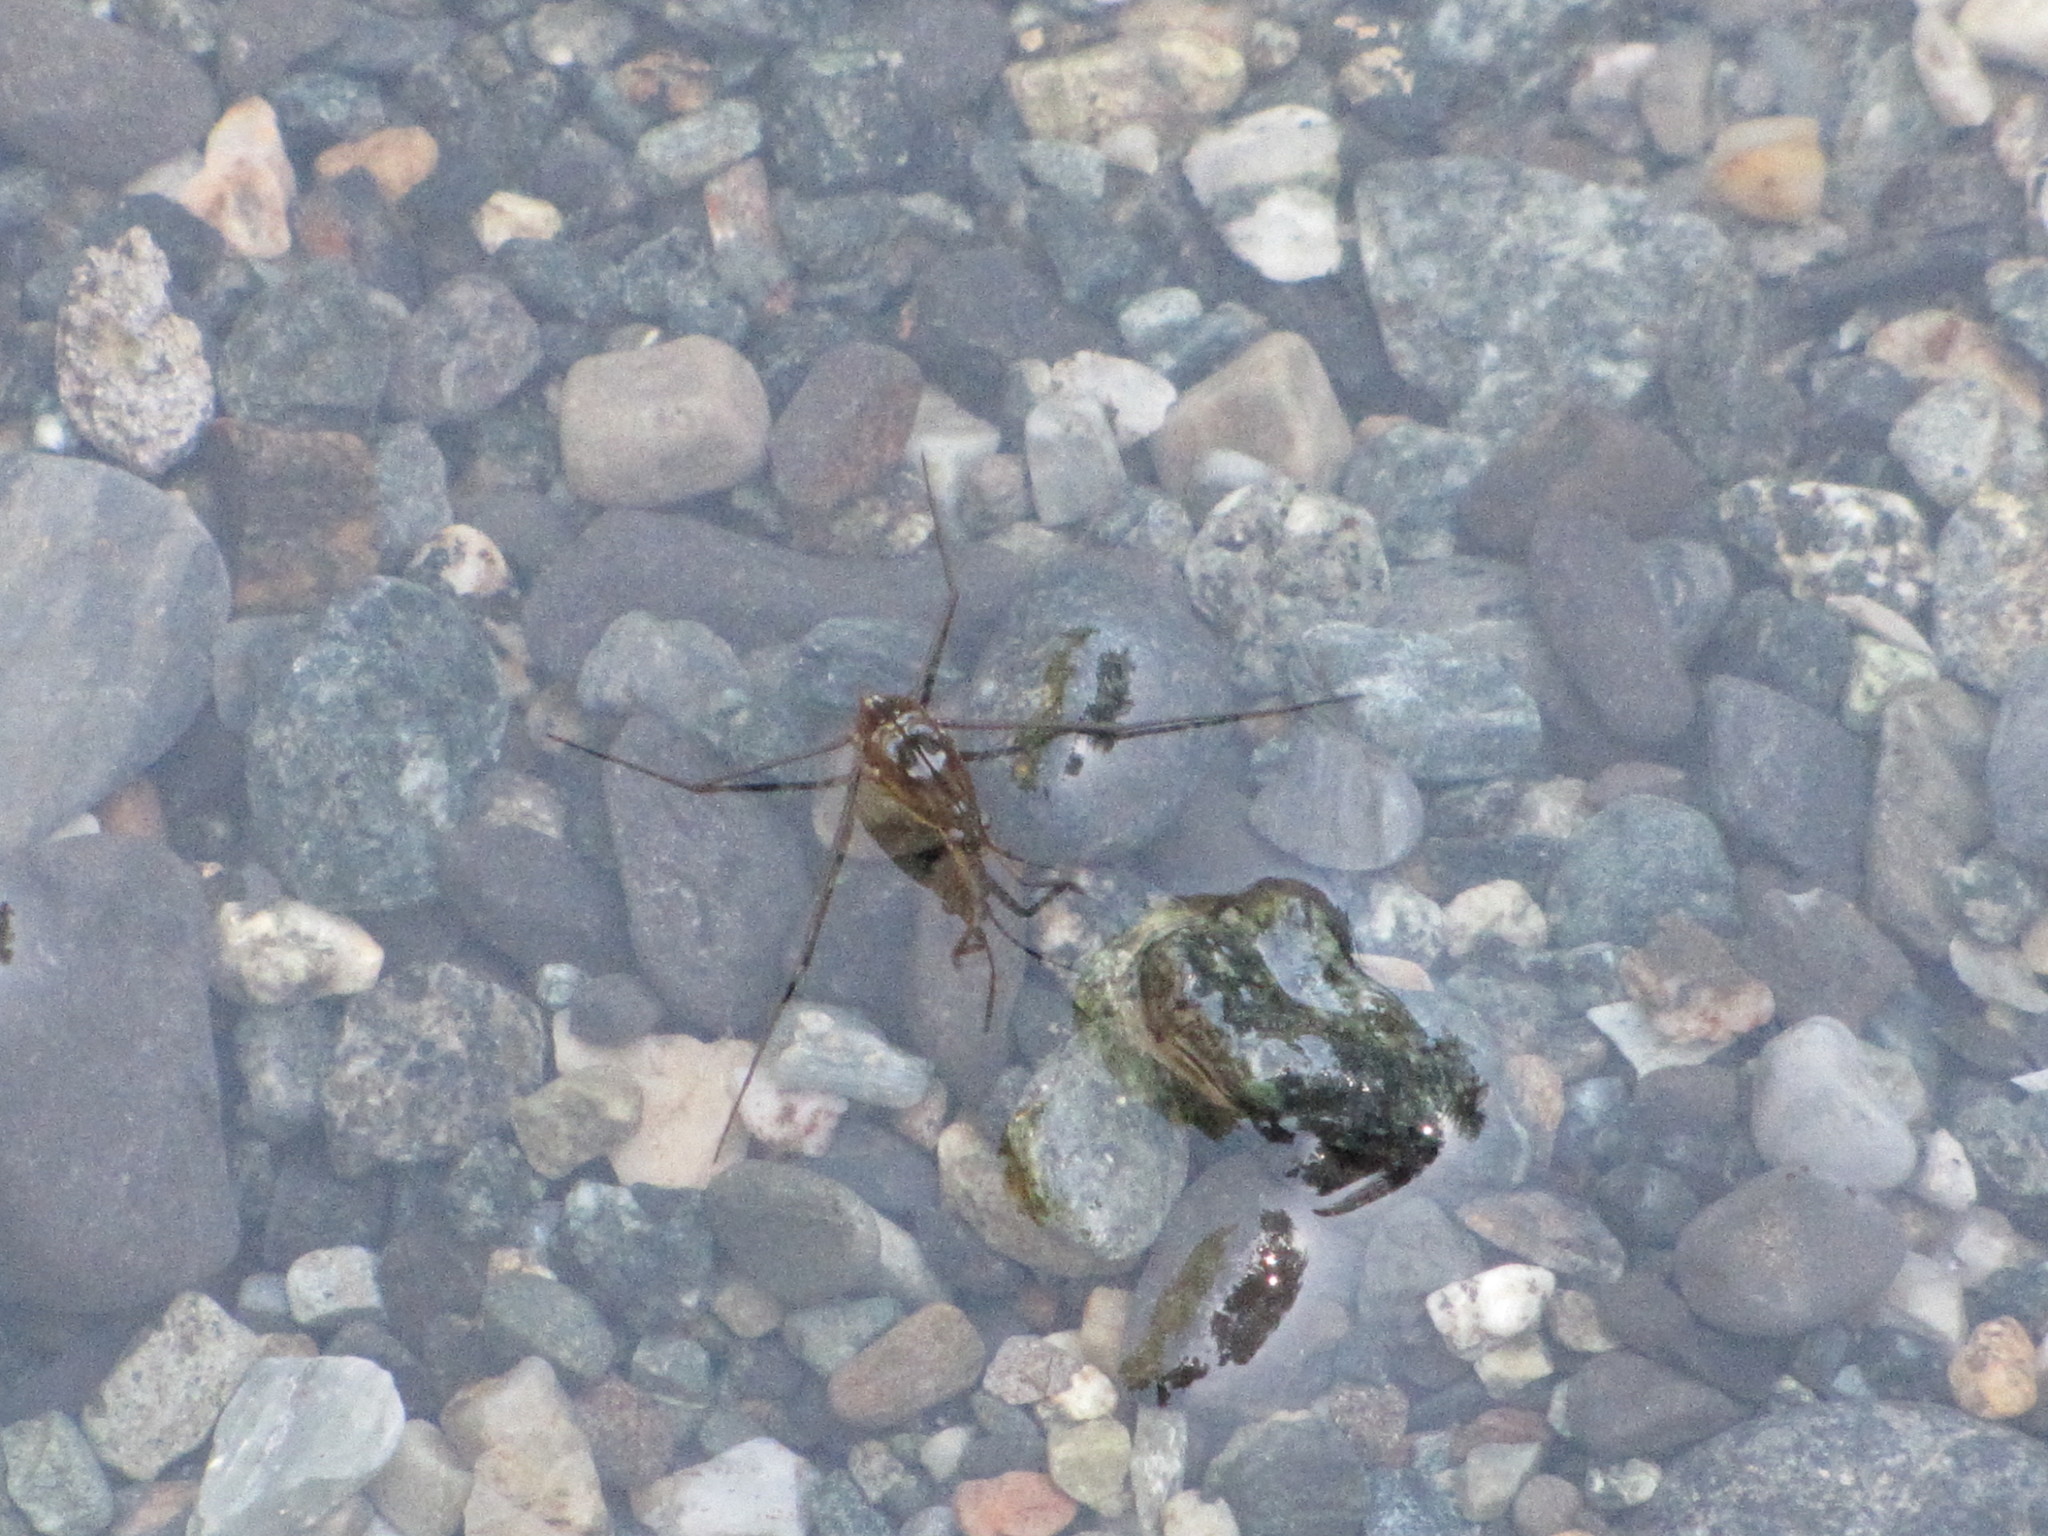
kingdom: Animalia
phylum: Arthropoda
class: Insecta
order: Hemiptera
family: Gerridae
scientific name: Gerridae
